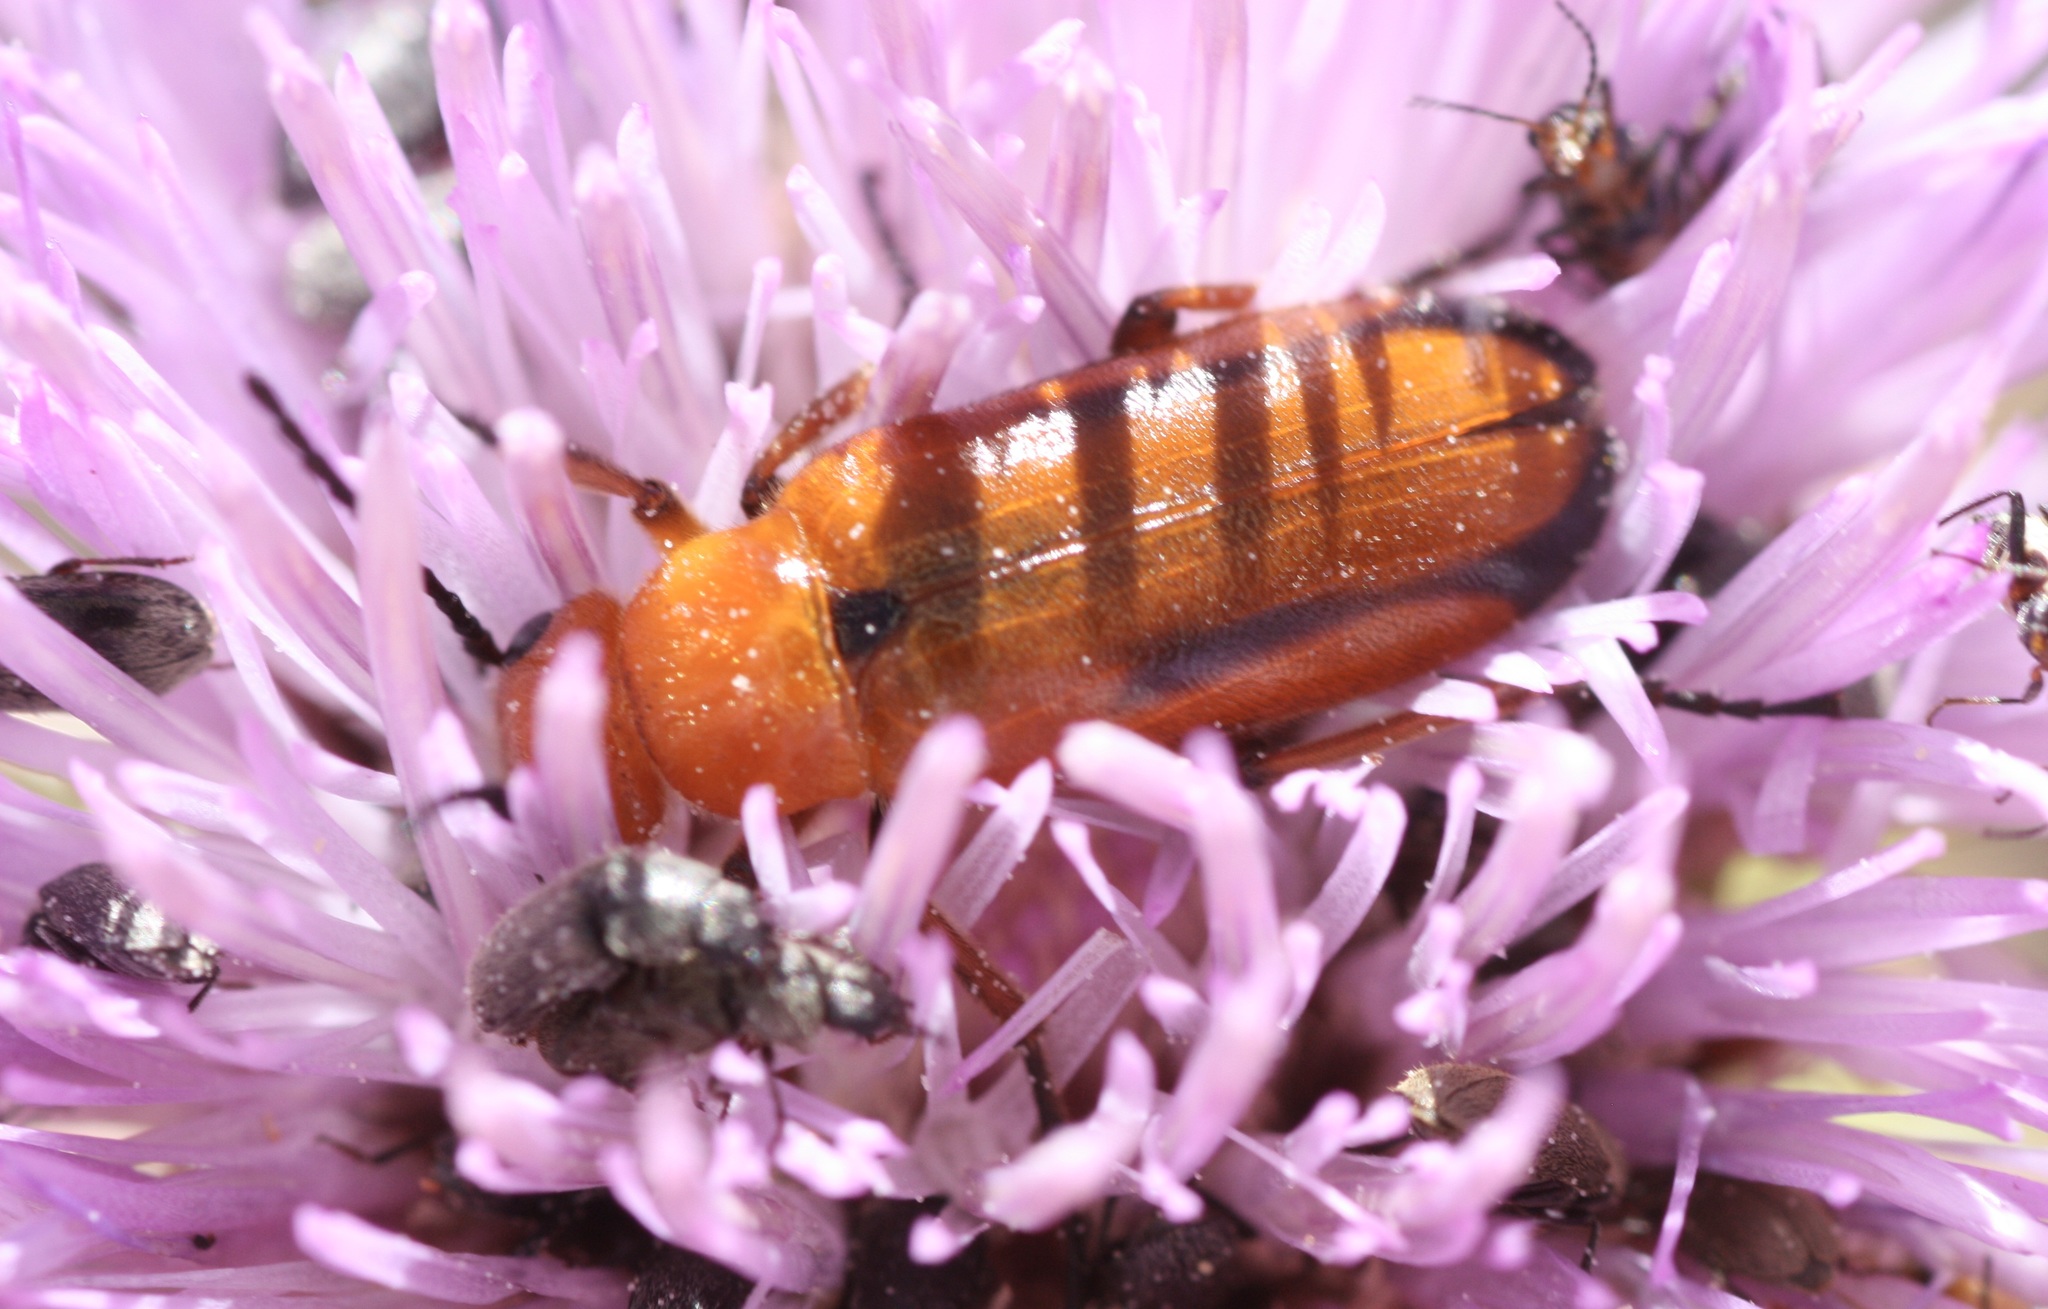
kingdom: Animalia
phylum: Arthropoda
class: Insecta
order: Coleoptera
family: Meloidae
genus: Nemognatha
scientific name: Nemognatha
